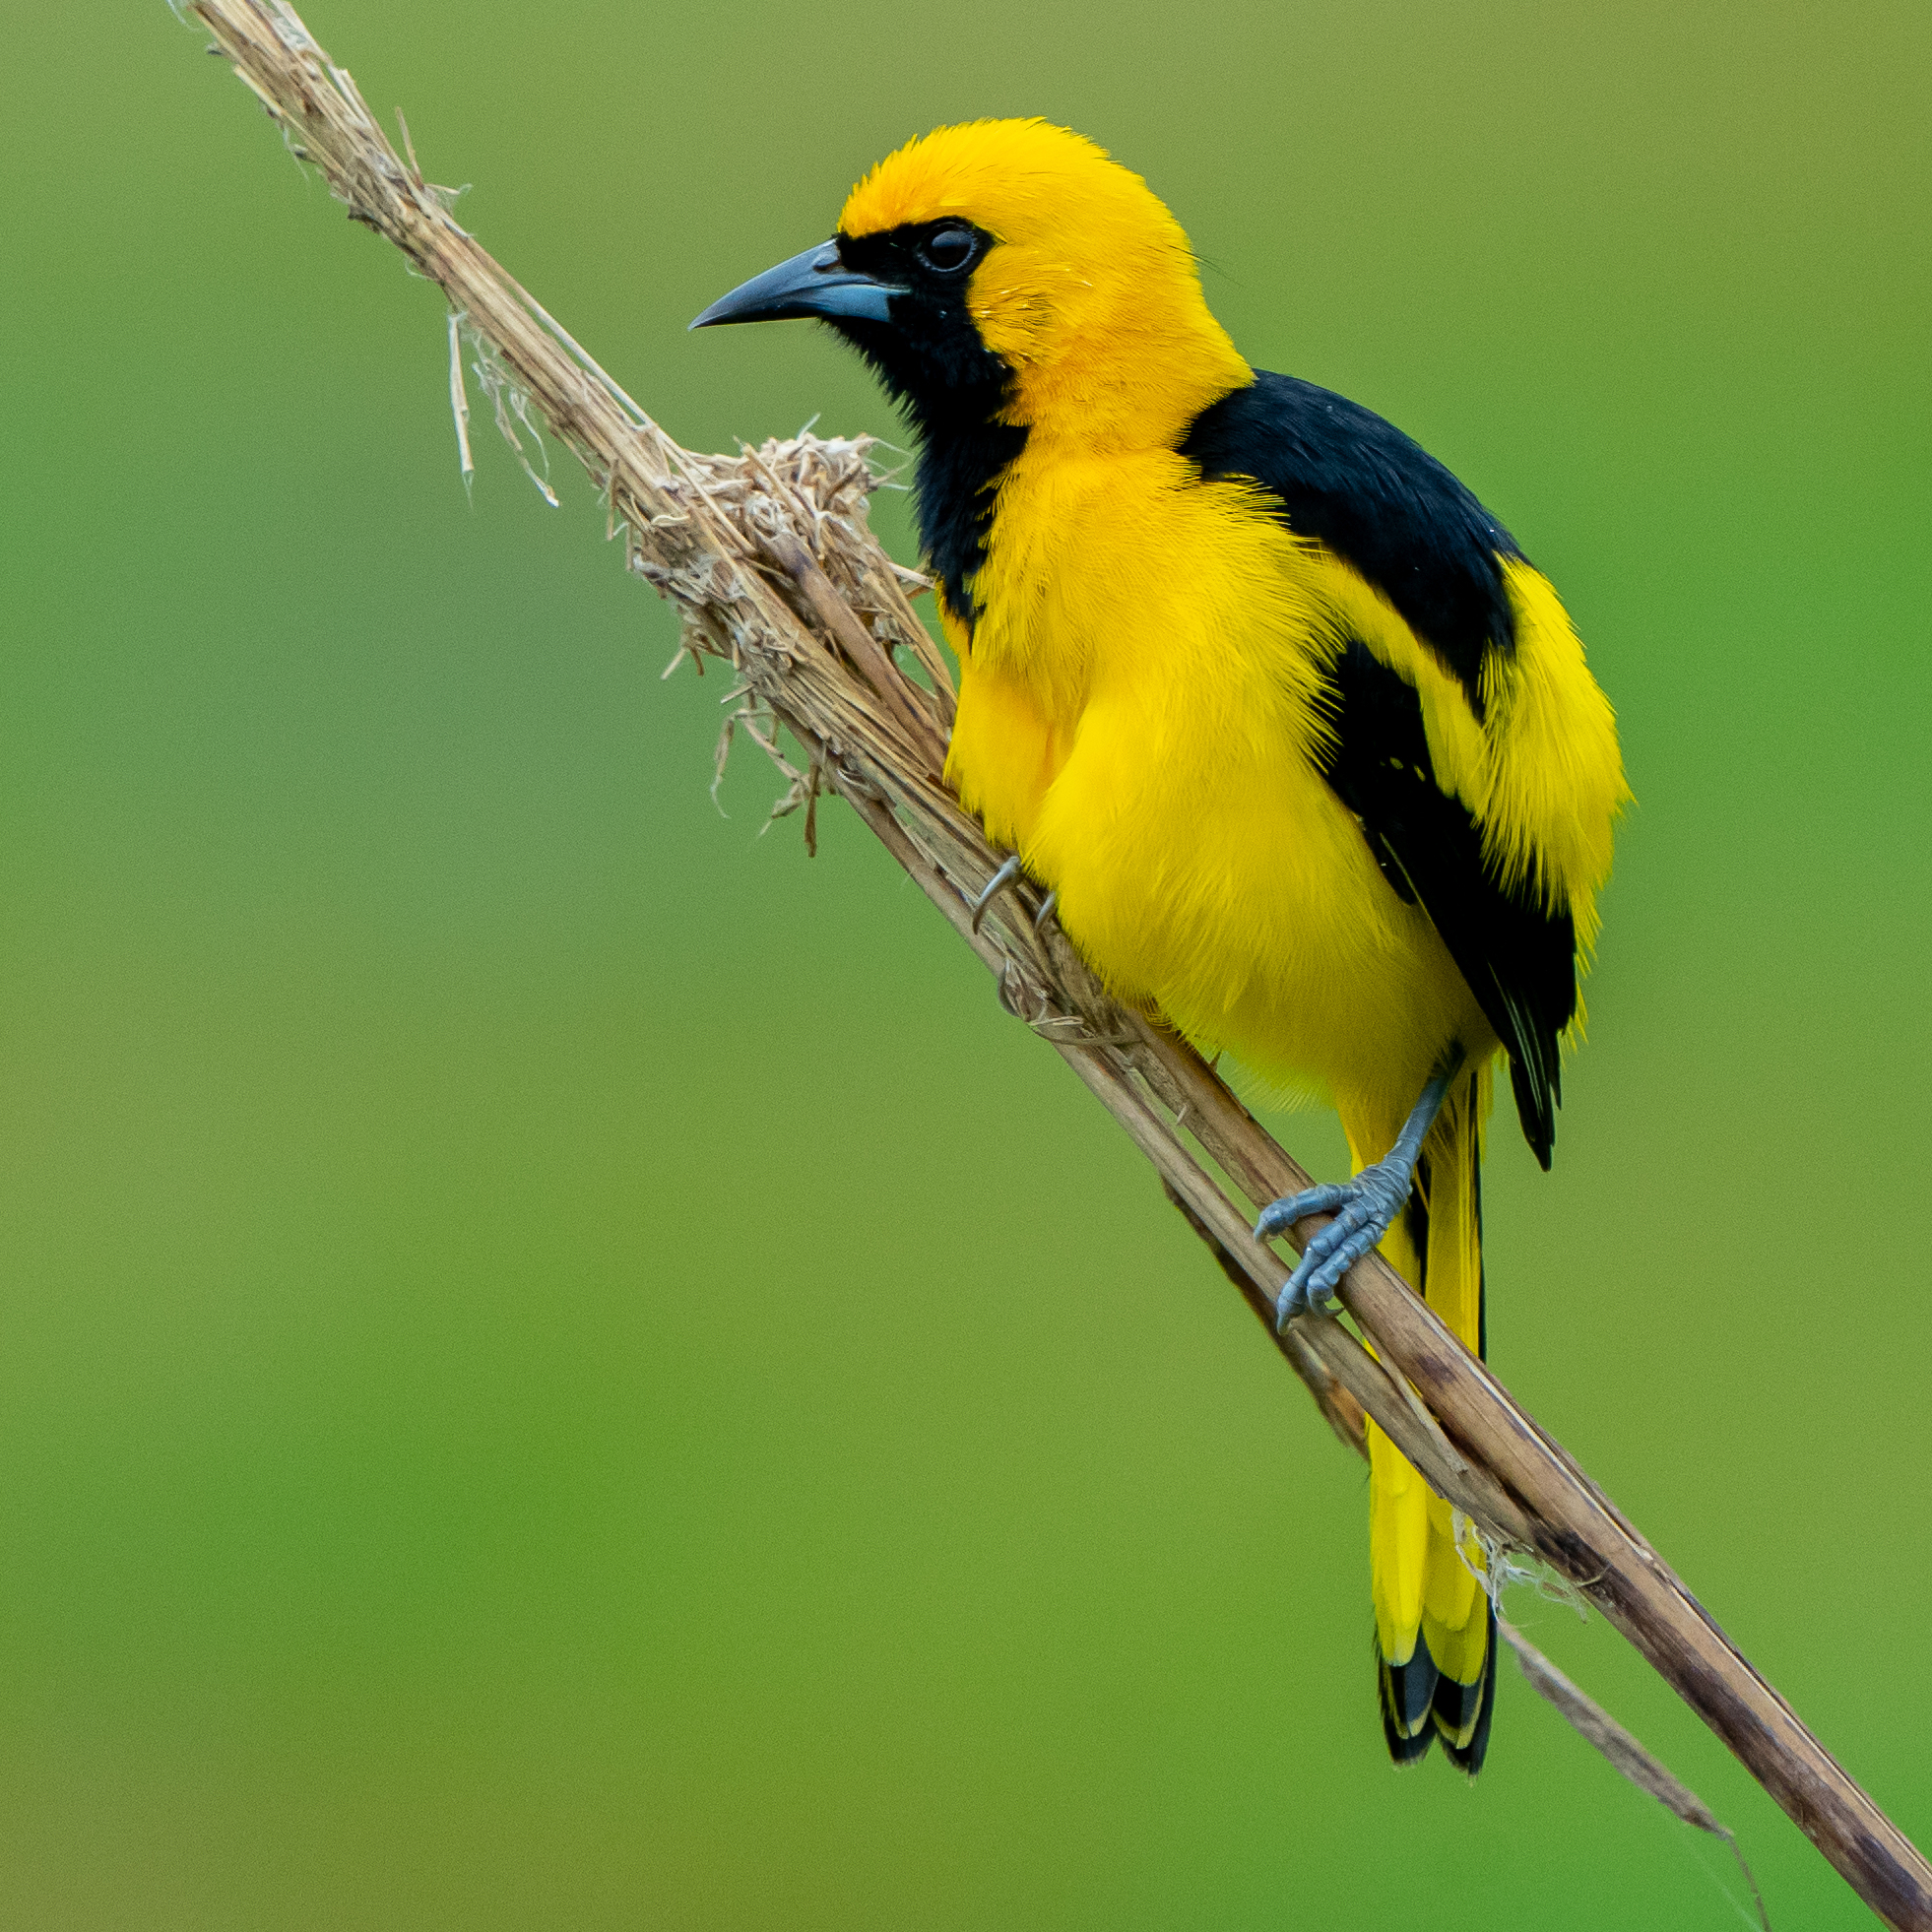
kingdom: Animalia
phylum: Chordata
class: Aves
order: Passeriformes
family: Icteridae
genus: Icterus
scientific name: Icterus mesomelas
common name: Yellow-tailed oriole
